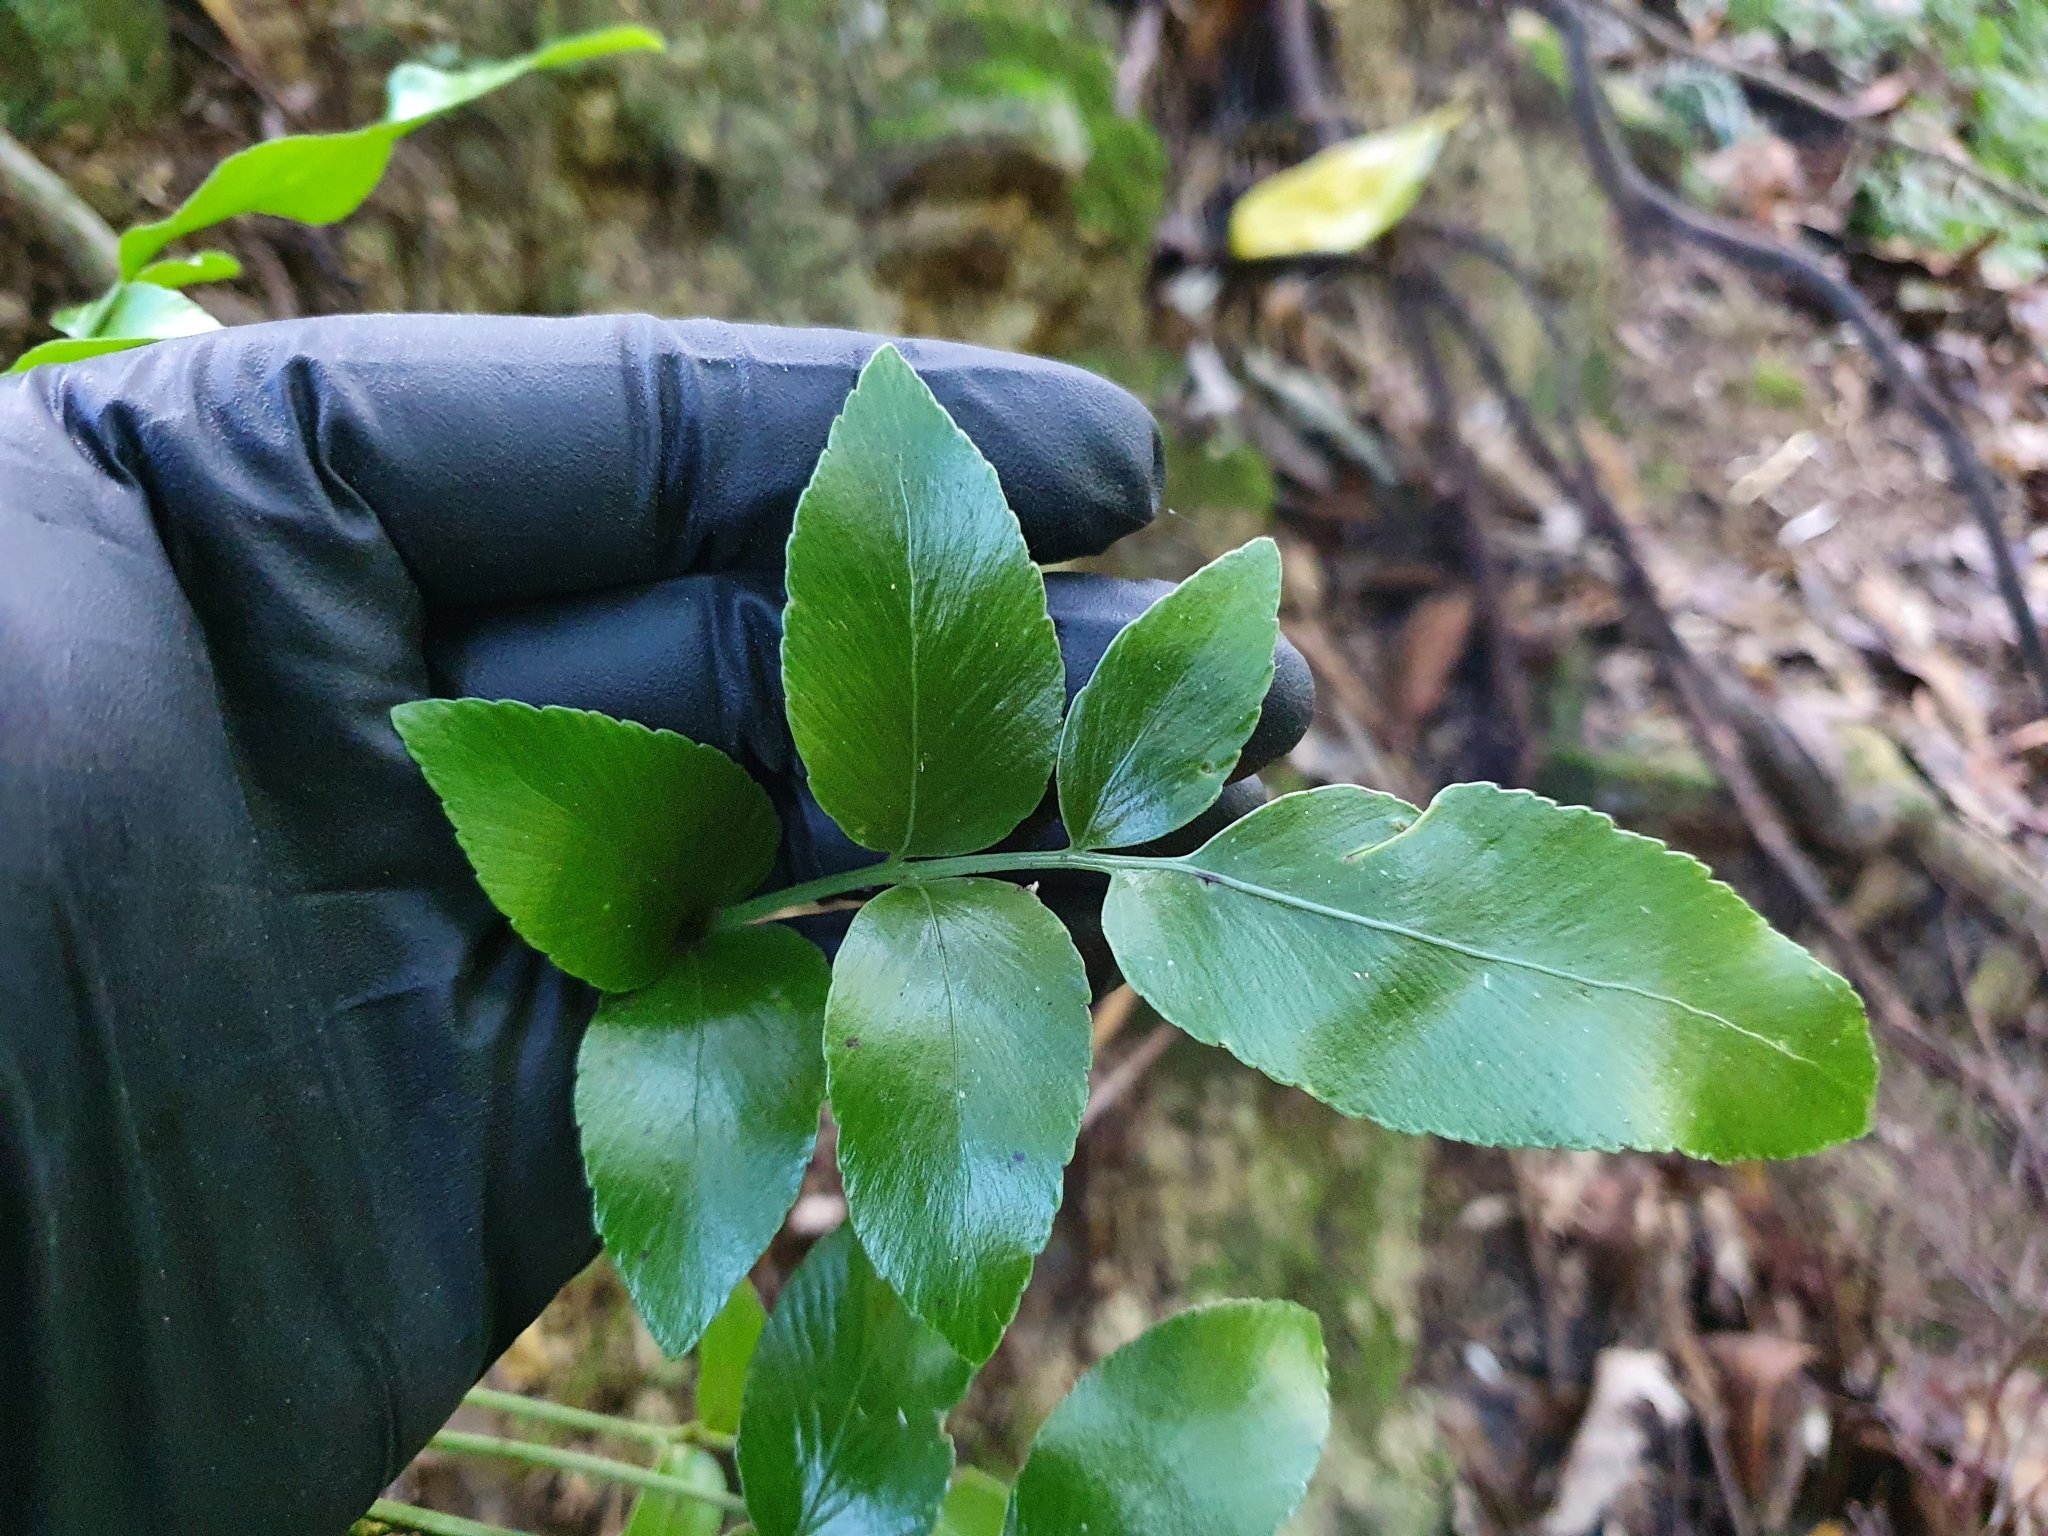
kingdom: Plantae
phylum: Tracheophyta
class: Polypodiopsida
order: Polypodiales
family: Aspleniaceae
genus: Asplenium
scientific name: Asplenium oblongifolium
